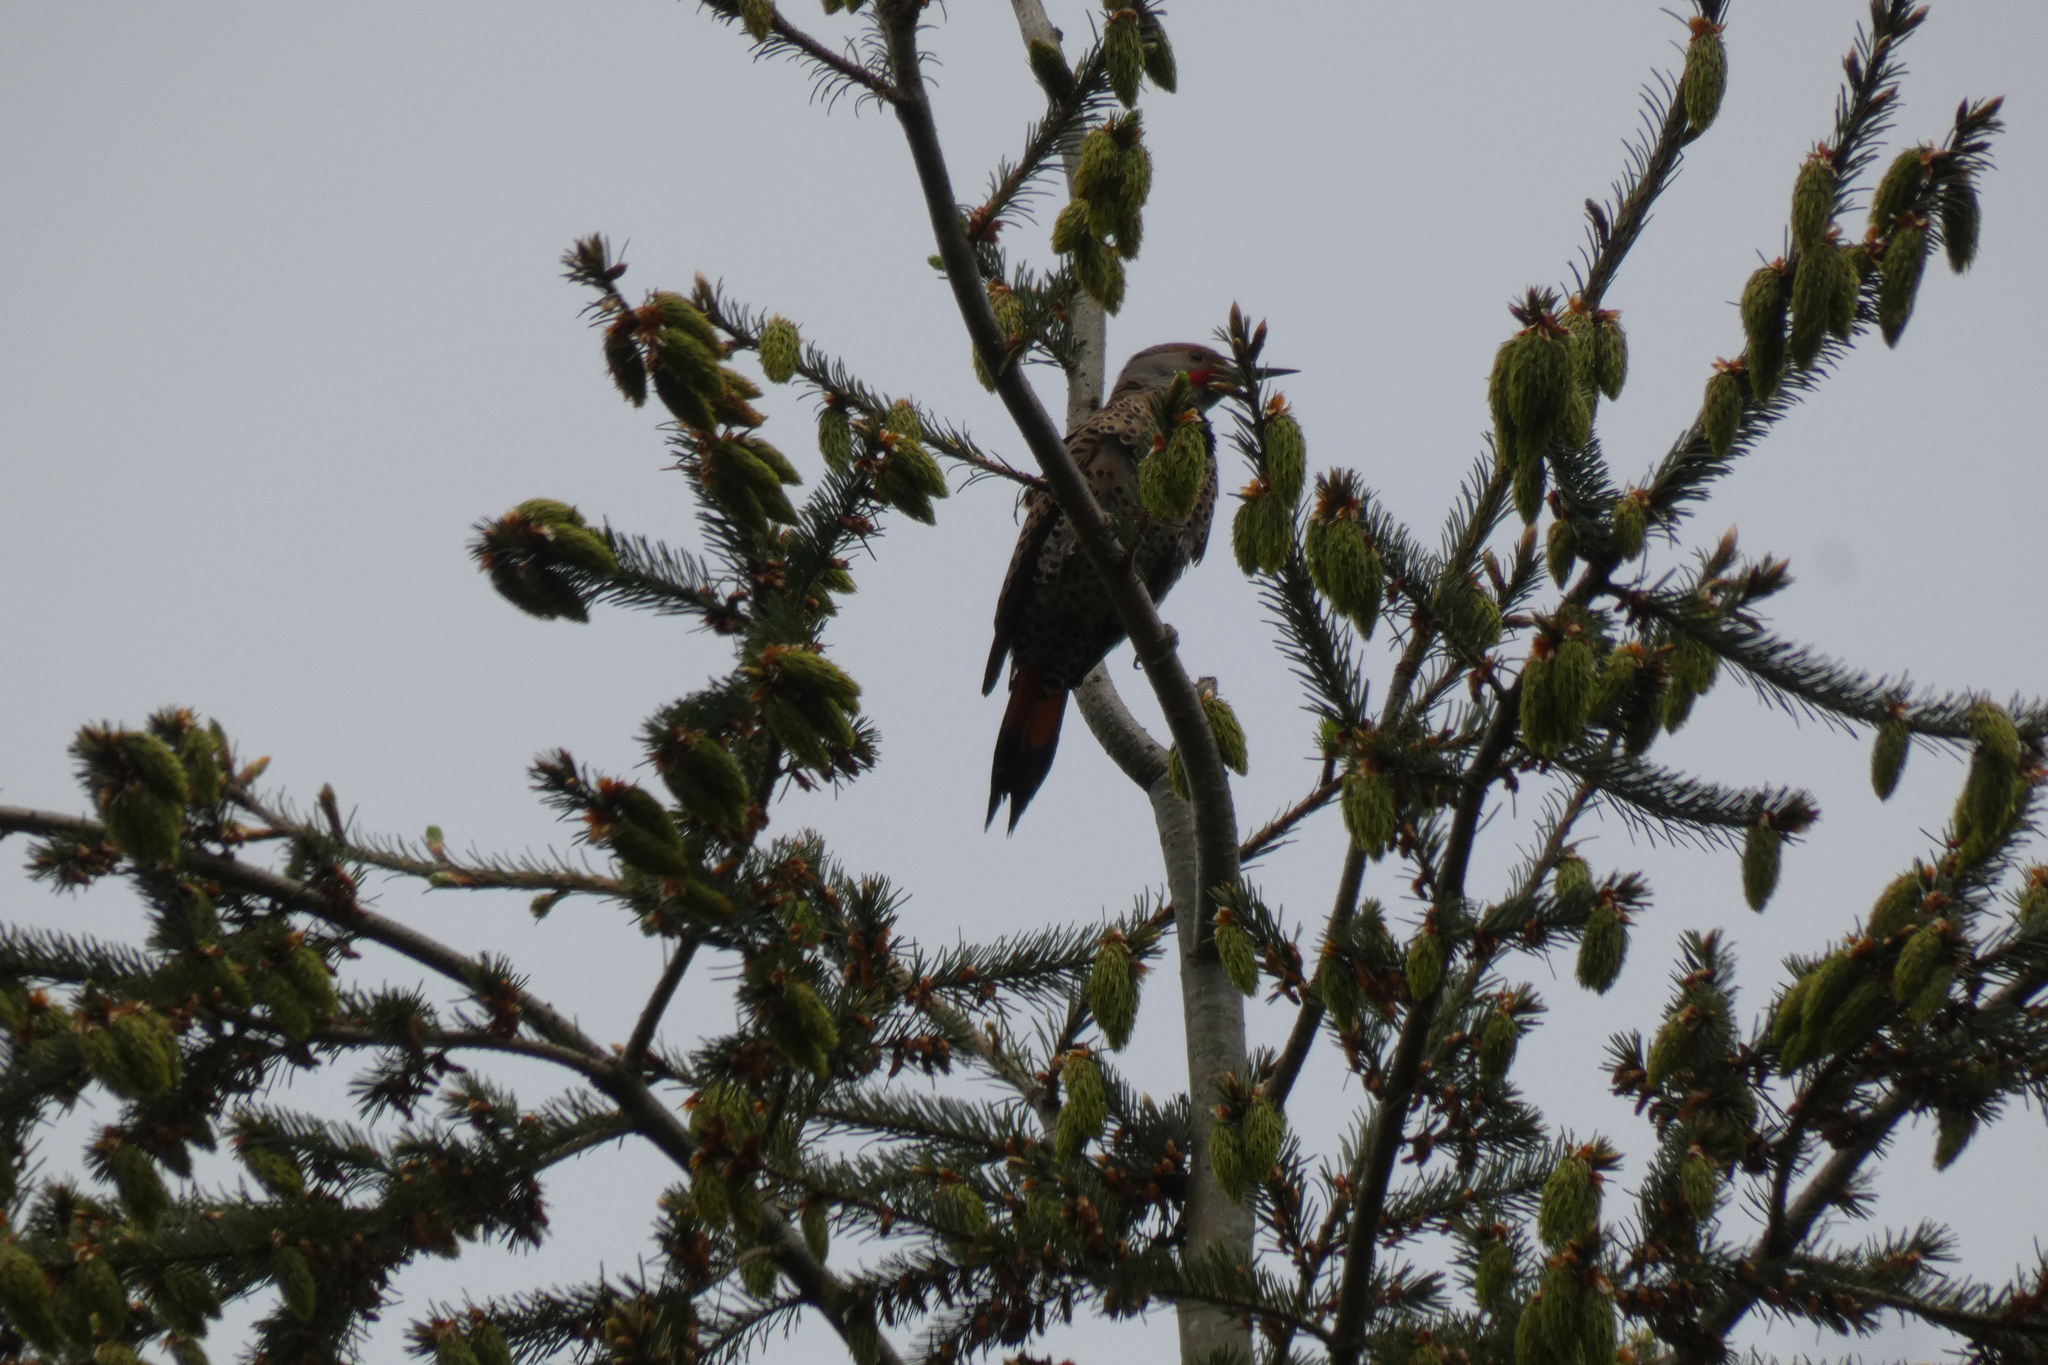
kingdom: Animalia
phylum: Chordata
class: Aves
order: Piciformes
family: Picidae
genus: Colaptes
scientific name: Colaptes auratus
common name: Northern flicker
